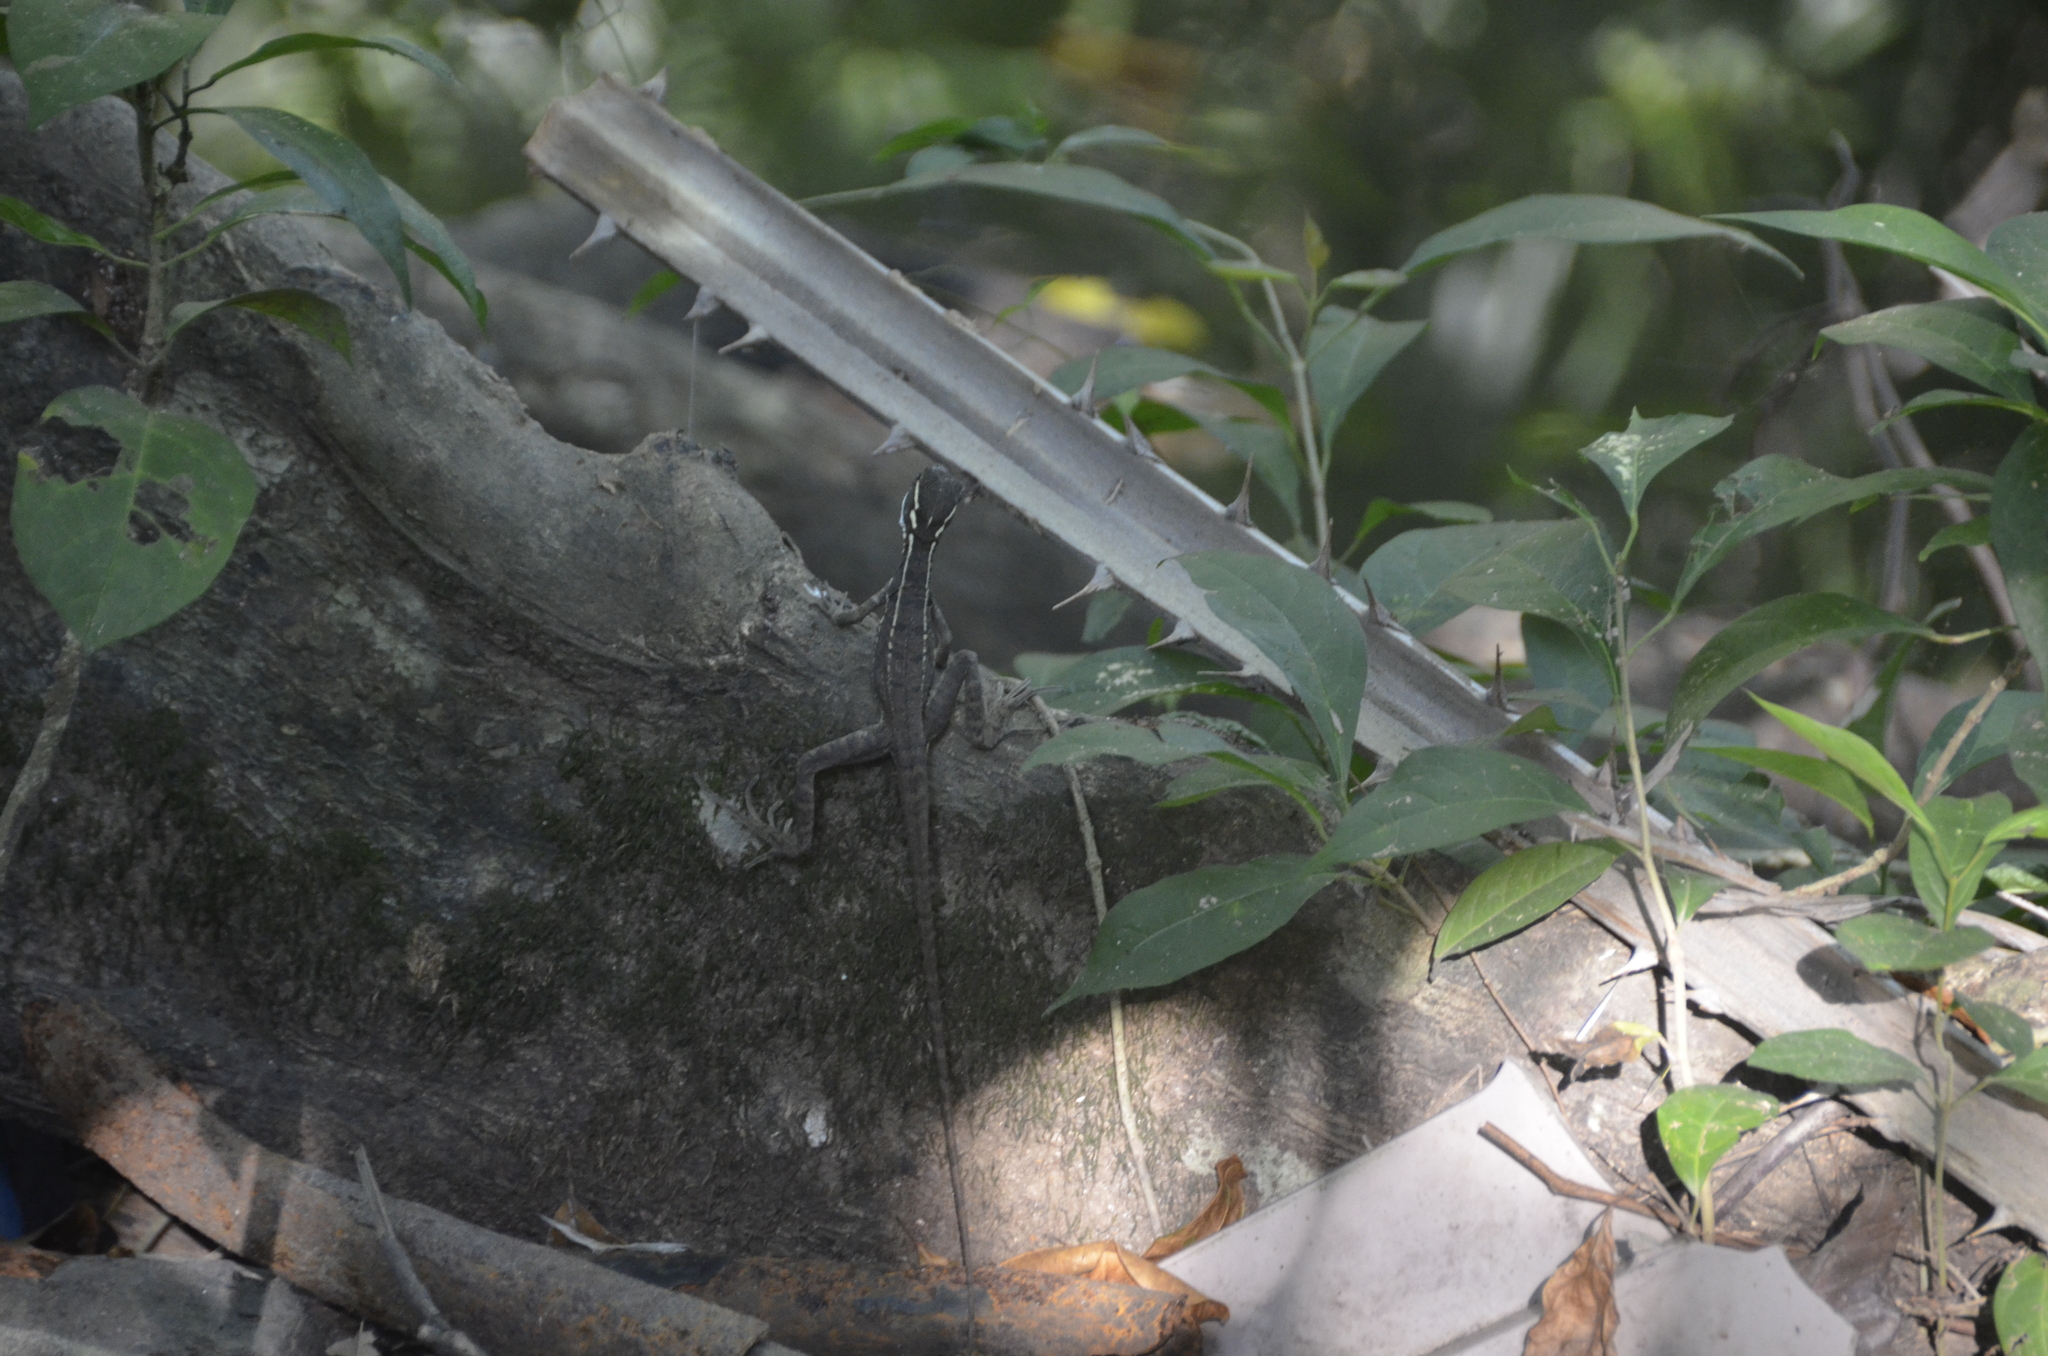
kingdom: Animalia
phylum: Chordata
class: Squamata
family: Corytophanidae
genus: Basiliscus
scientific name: Basiliscus basiliscus
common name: Common basilisk
